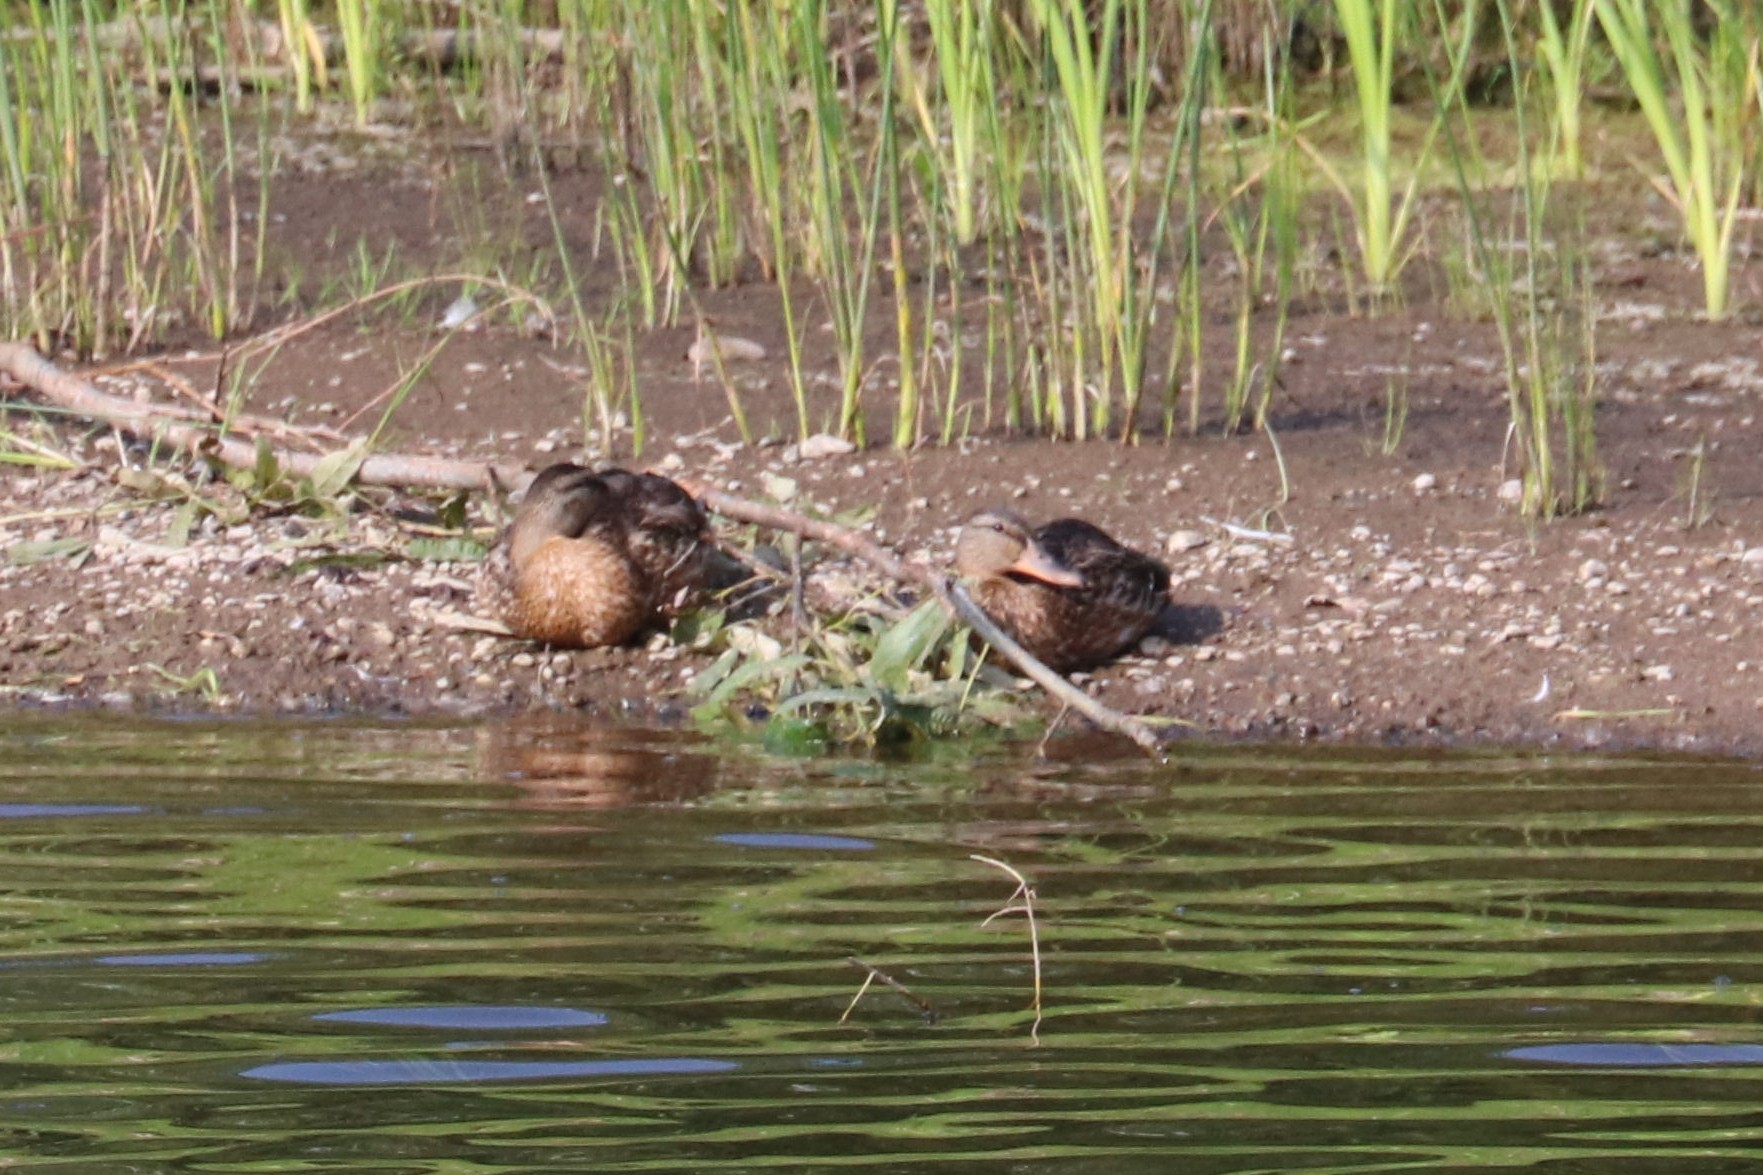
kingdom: Animalia
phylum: Chordata
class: Aves
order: Anseriformes
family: Anatidae
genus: Anas
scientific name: Anas platyrhynchos
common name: Mallard
